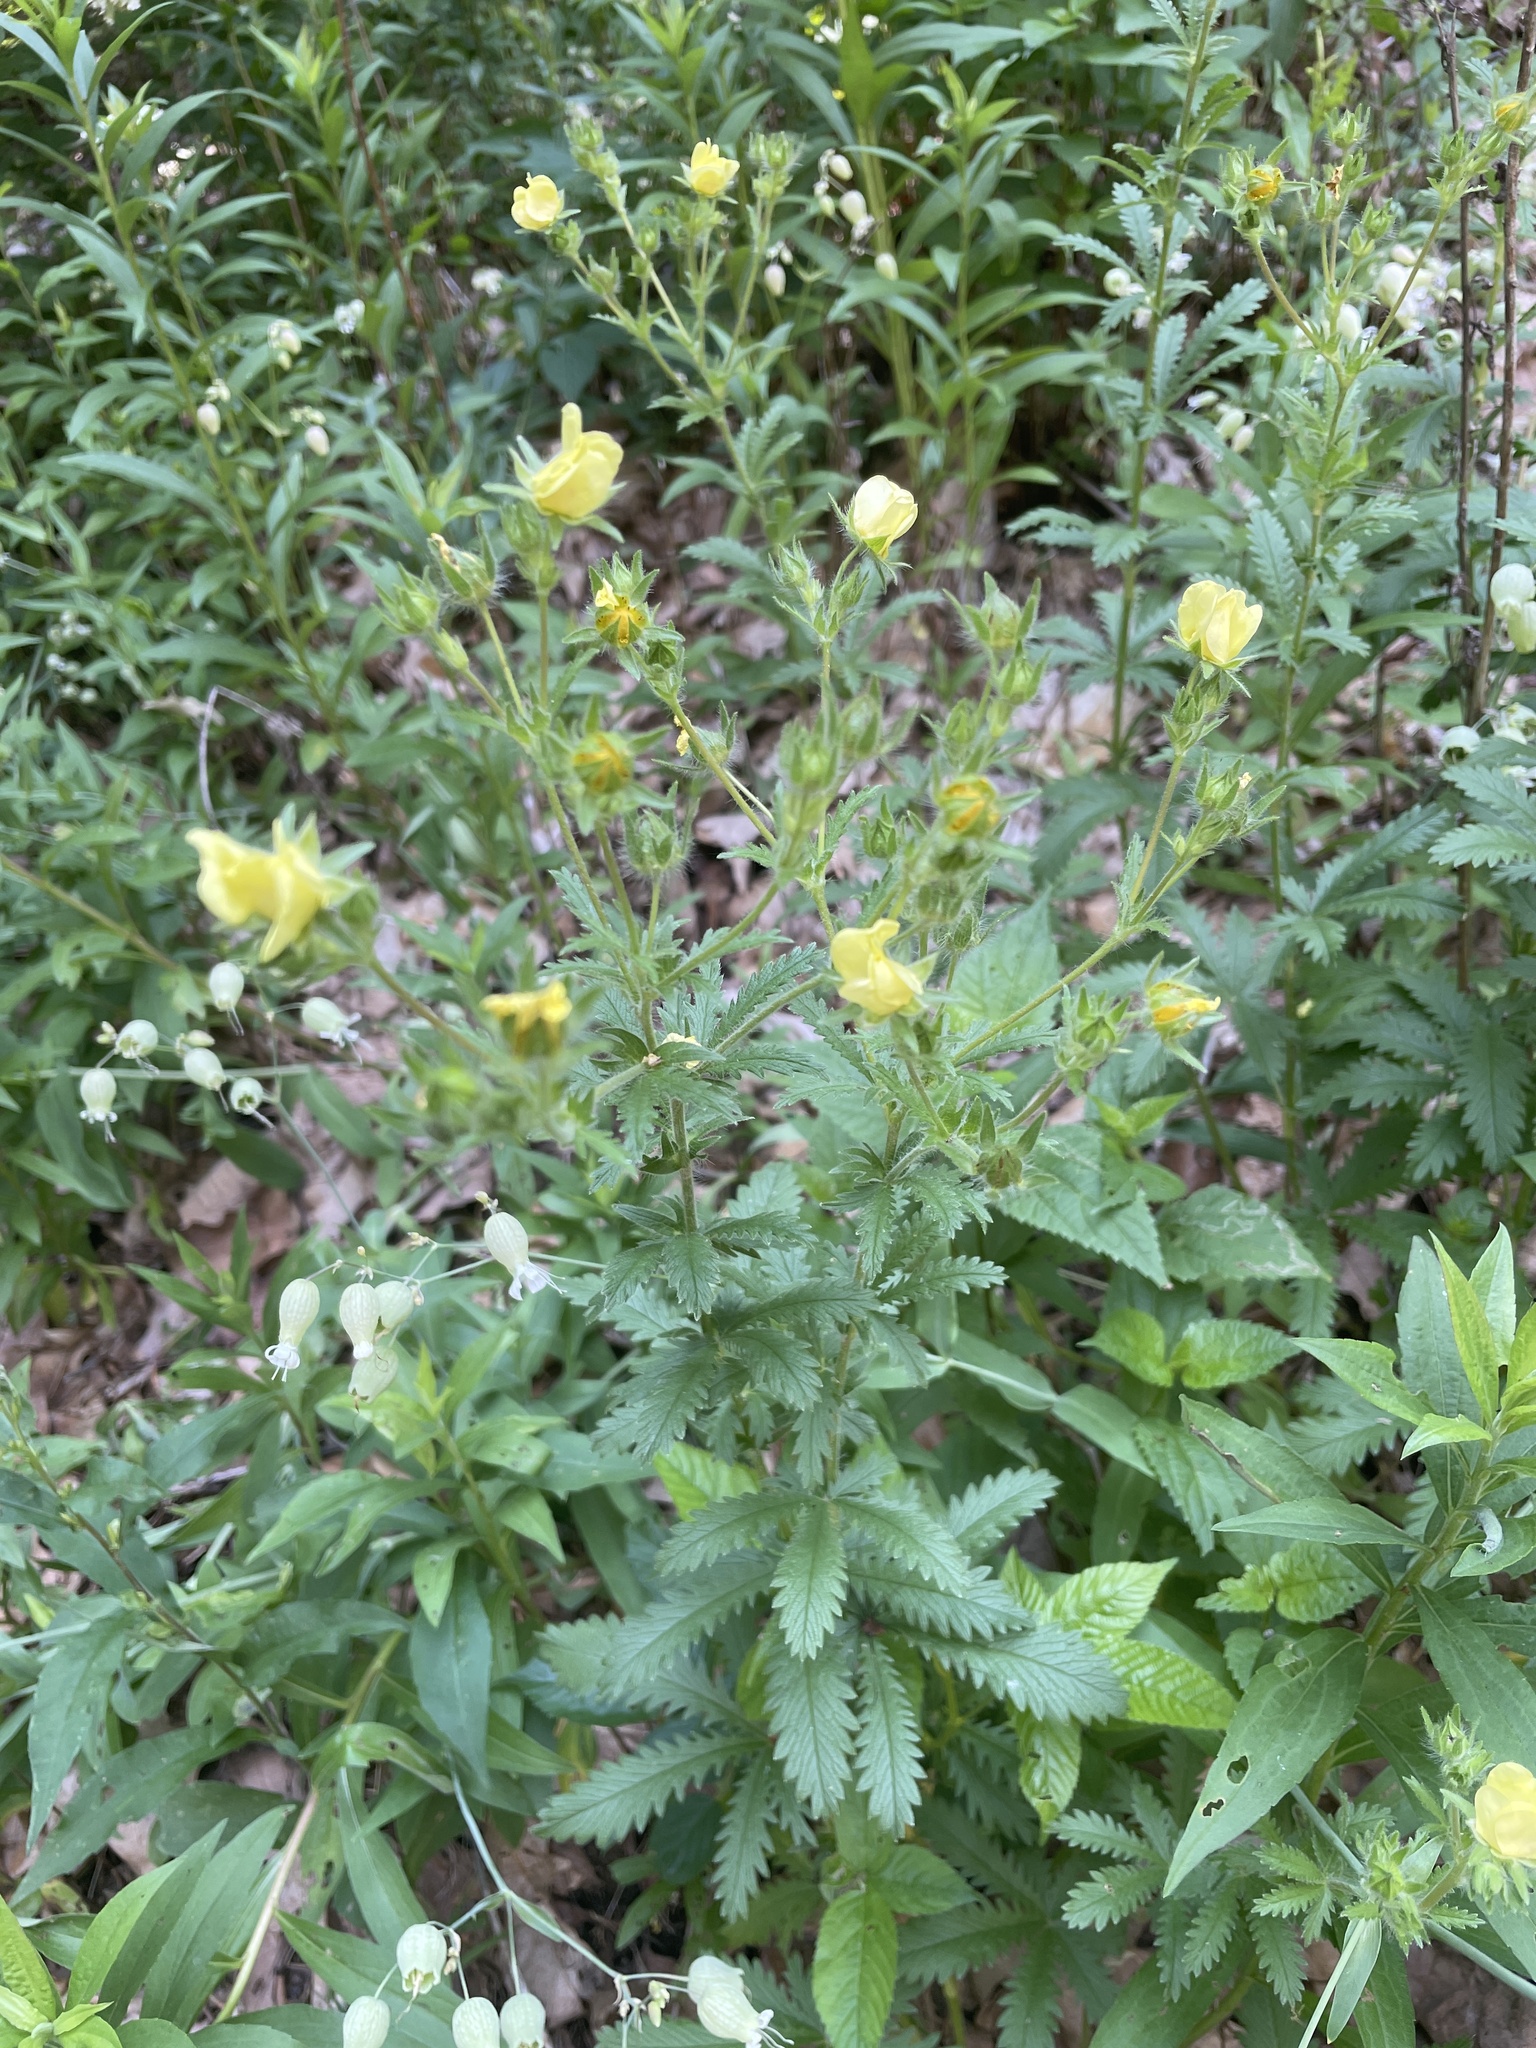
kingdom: Plantae
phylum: Tracheophyta
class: Magnoliopsida
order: Rosales
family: Rosaceae
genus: Potentilla
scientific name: Potentilla recta
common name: Sulphur cinquefoil
